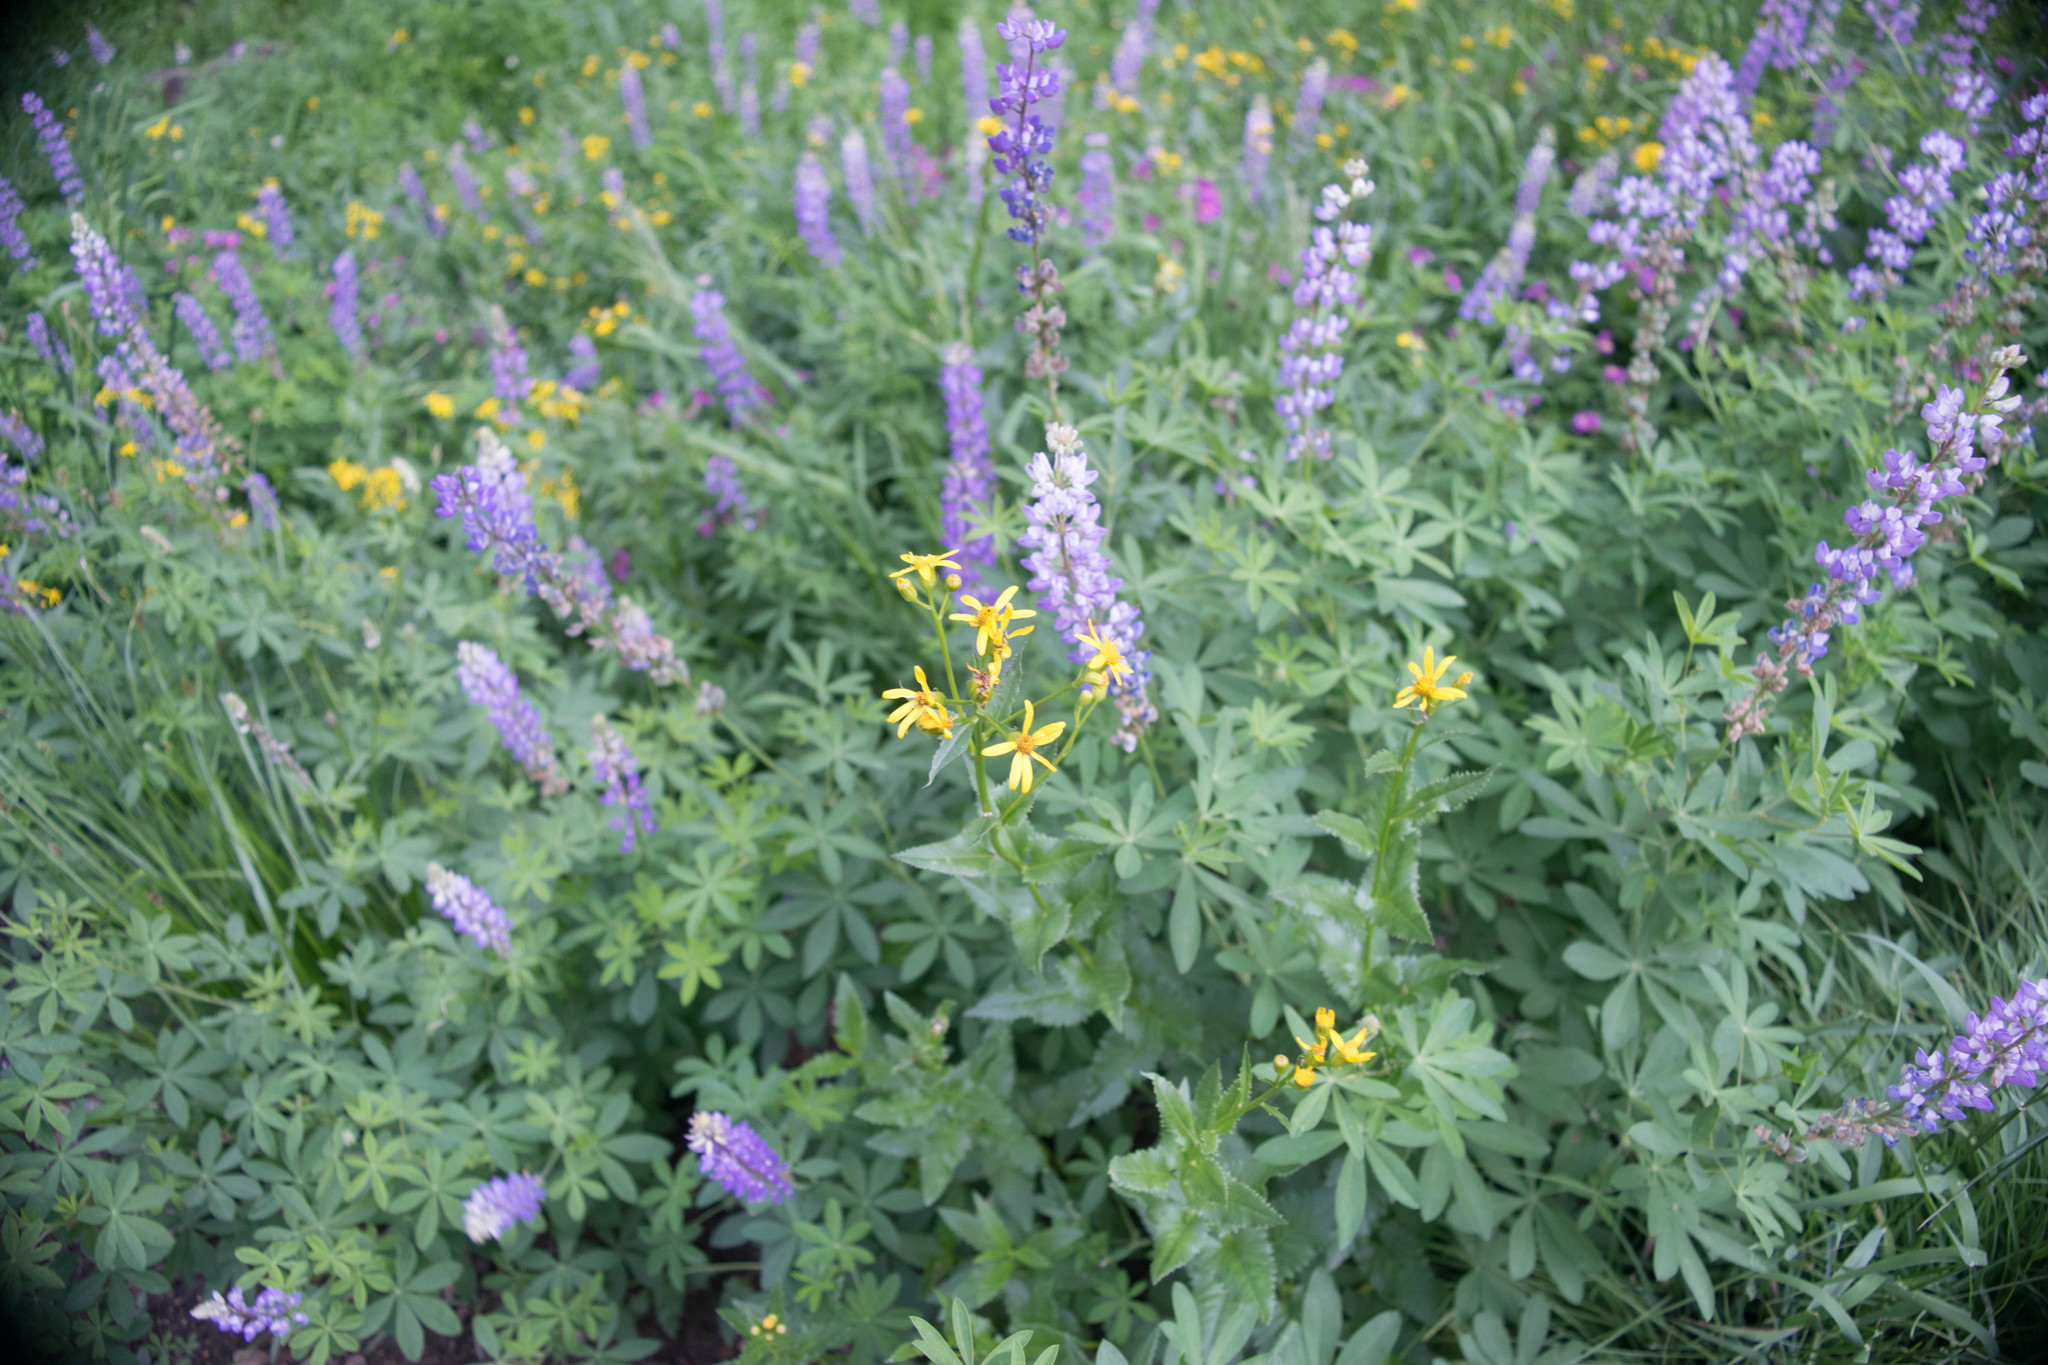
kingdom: Plantae
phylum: Tracheophyta
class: Magnoliopsida
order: Asterales
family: Asteraceae
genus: Senecio
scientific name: Senecio triangularis
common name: Arrowleaf butterweed
